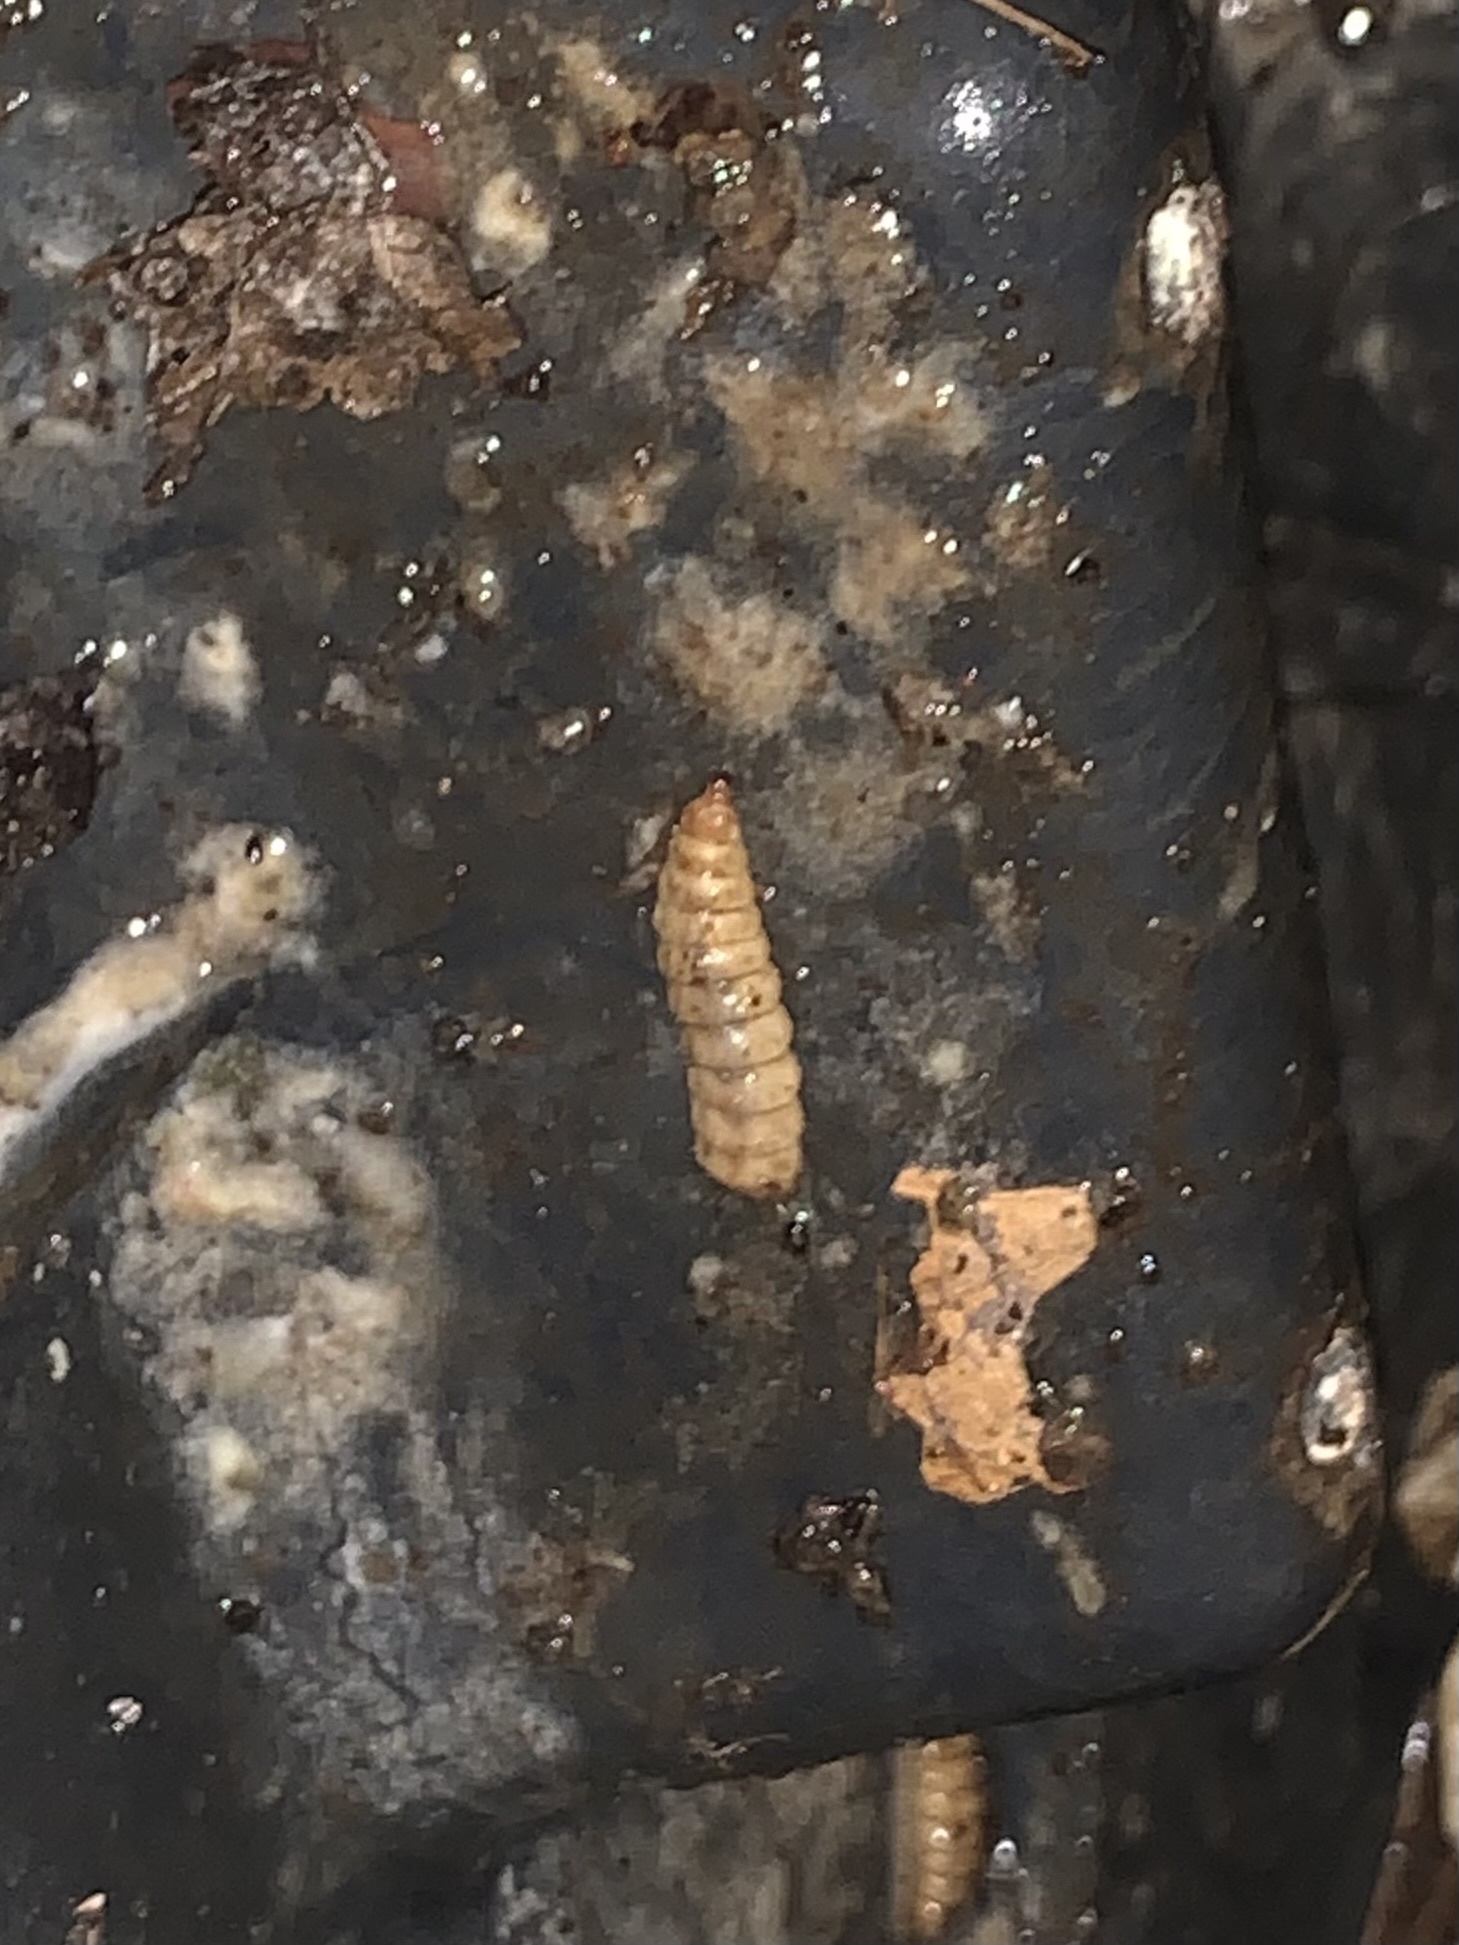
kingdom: Animalia
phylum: Arthropoda
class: Insecta
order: Diptera
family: Stratiomyidae
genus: Hermetia
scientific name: Hermetia illucens
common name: Black soldier fly
